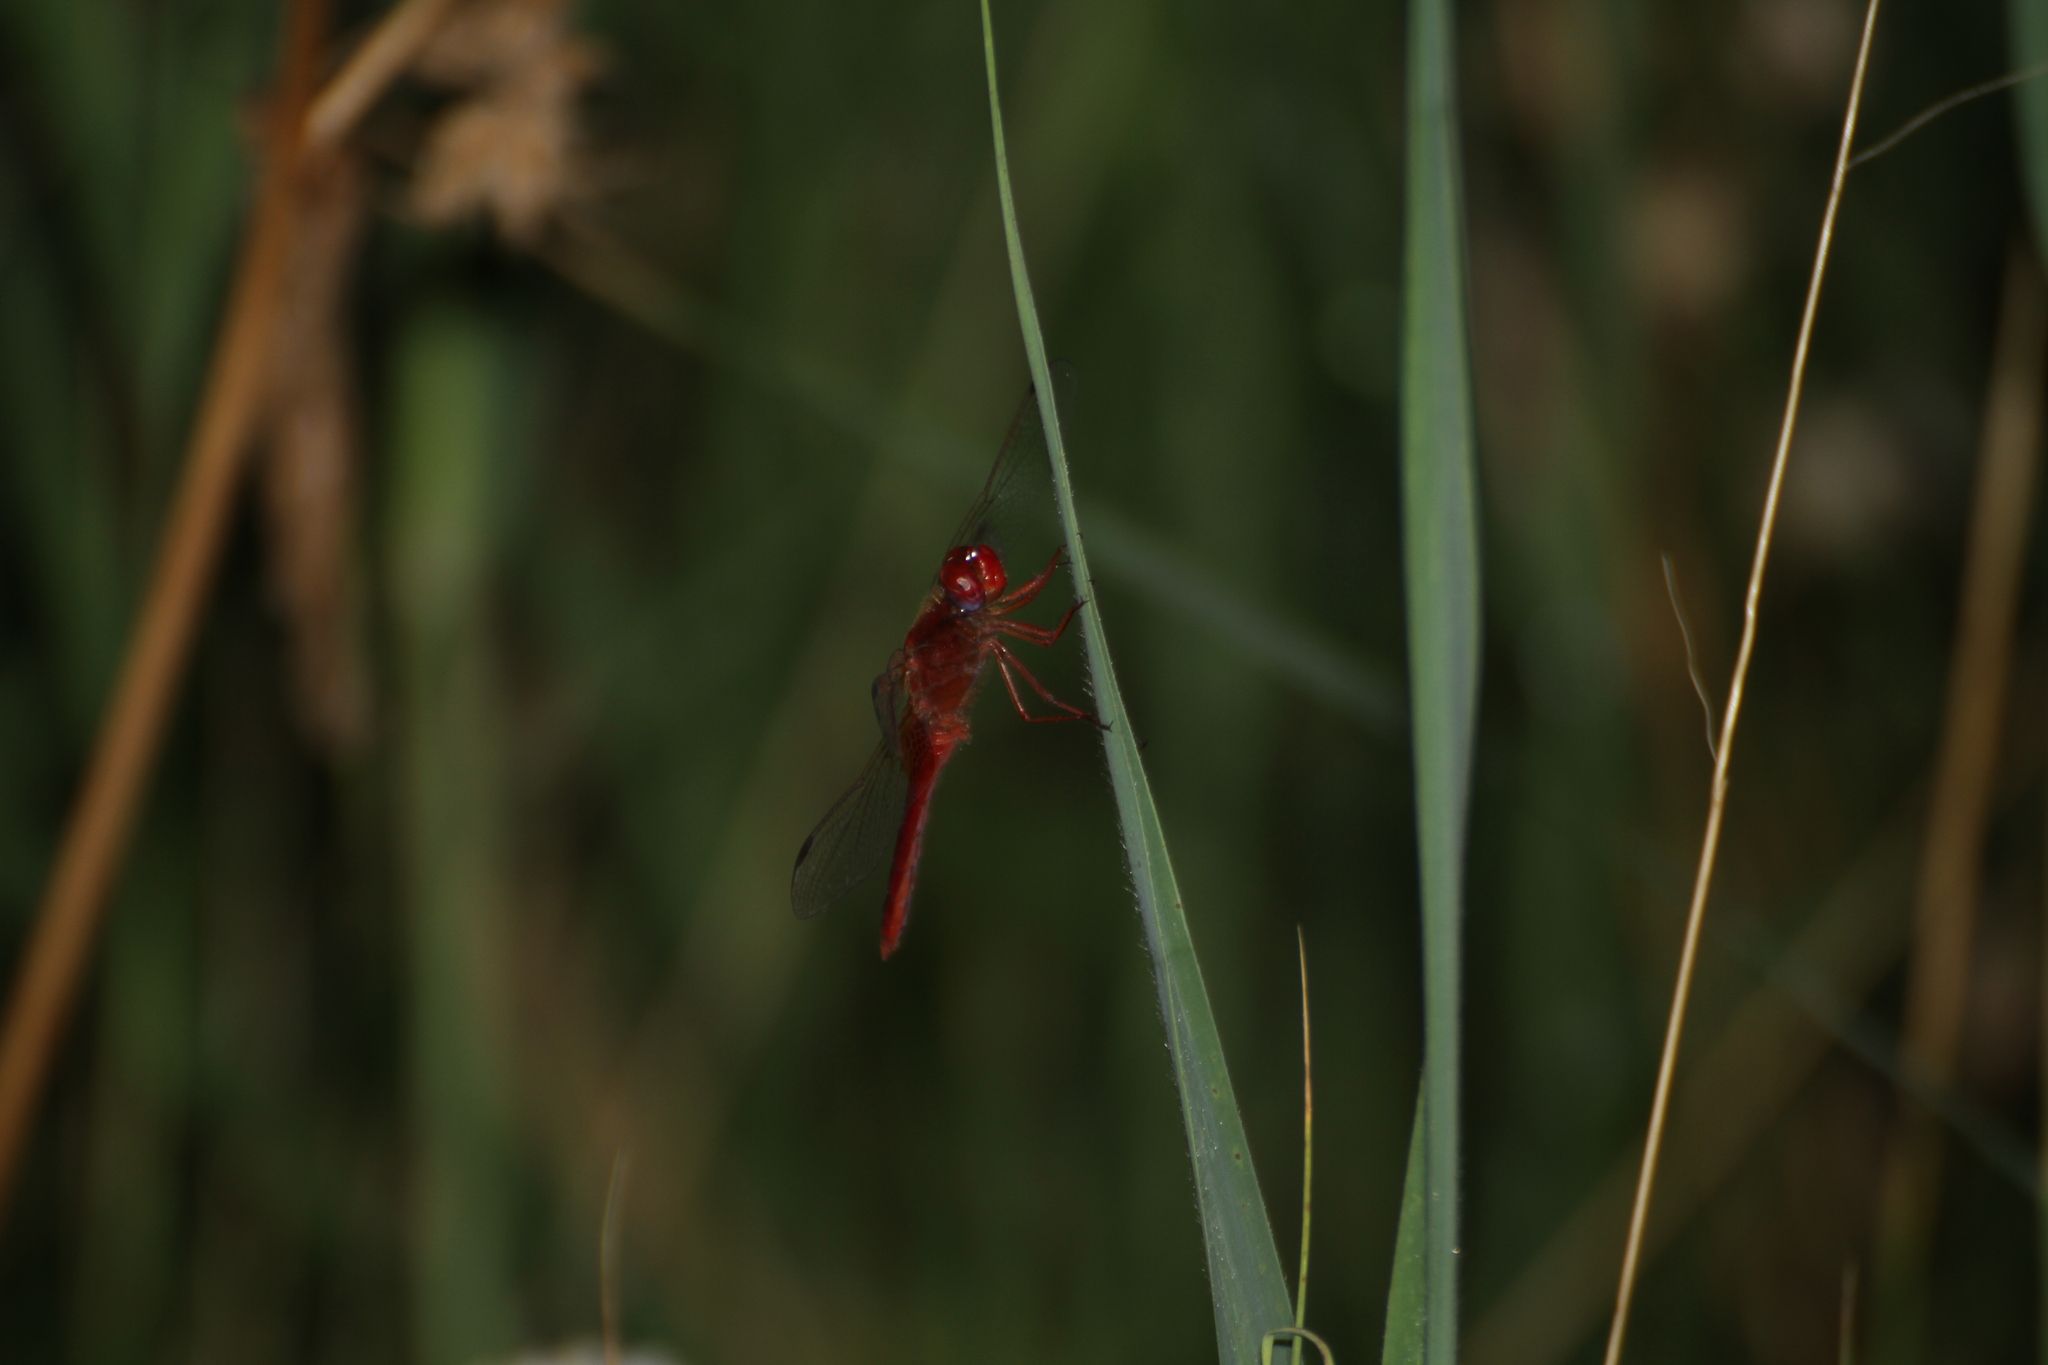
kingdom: Animalia
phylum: Arthropoda
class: Insecta
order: Odonata
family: Libellulidae
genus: Crocothemis
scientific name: Crocothemis erythraea
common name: Scarlet dragonfly
